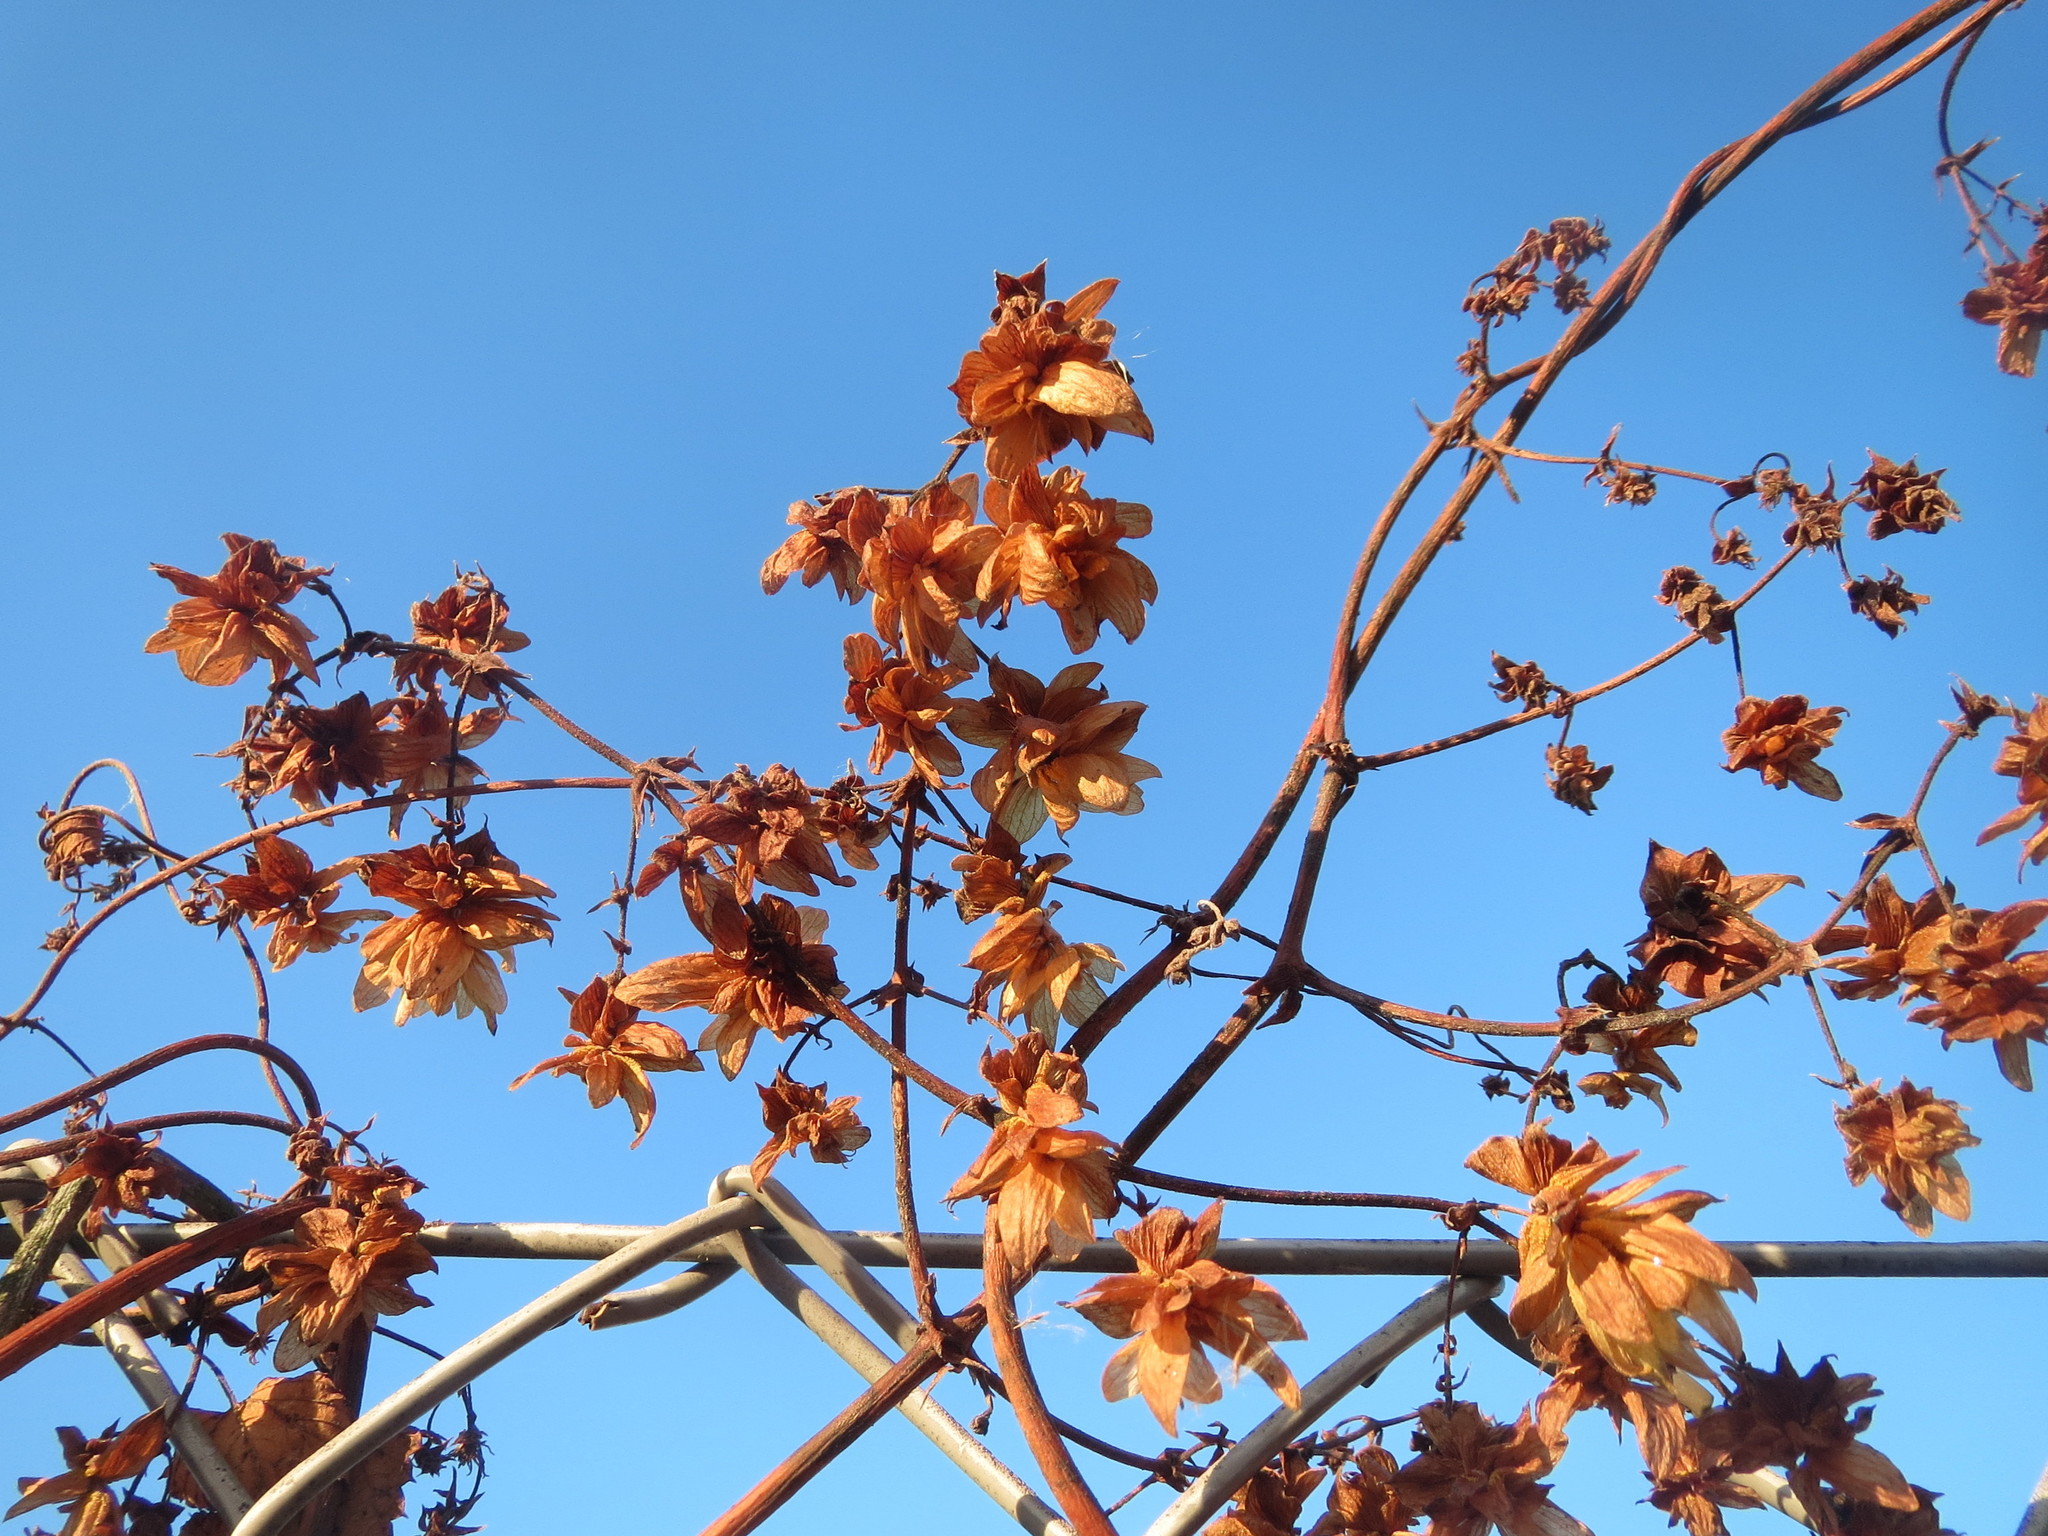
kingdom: Plantae
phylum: Tracheophyta
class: Magnoliopsida
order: Rosales
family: Cannabaceae
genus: Humulus
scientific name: Humulus lupulus
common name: Hop
